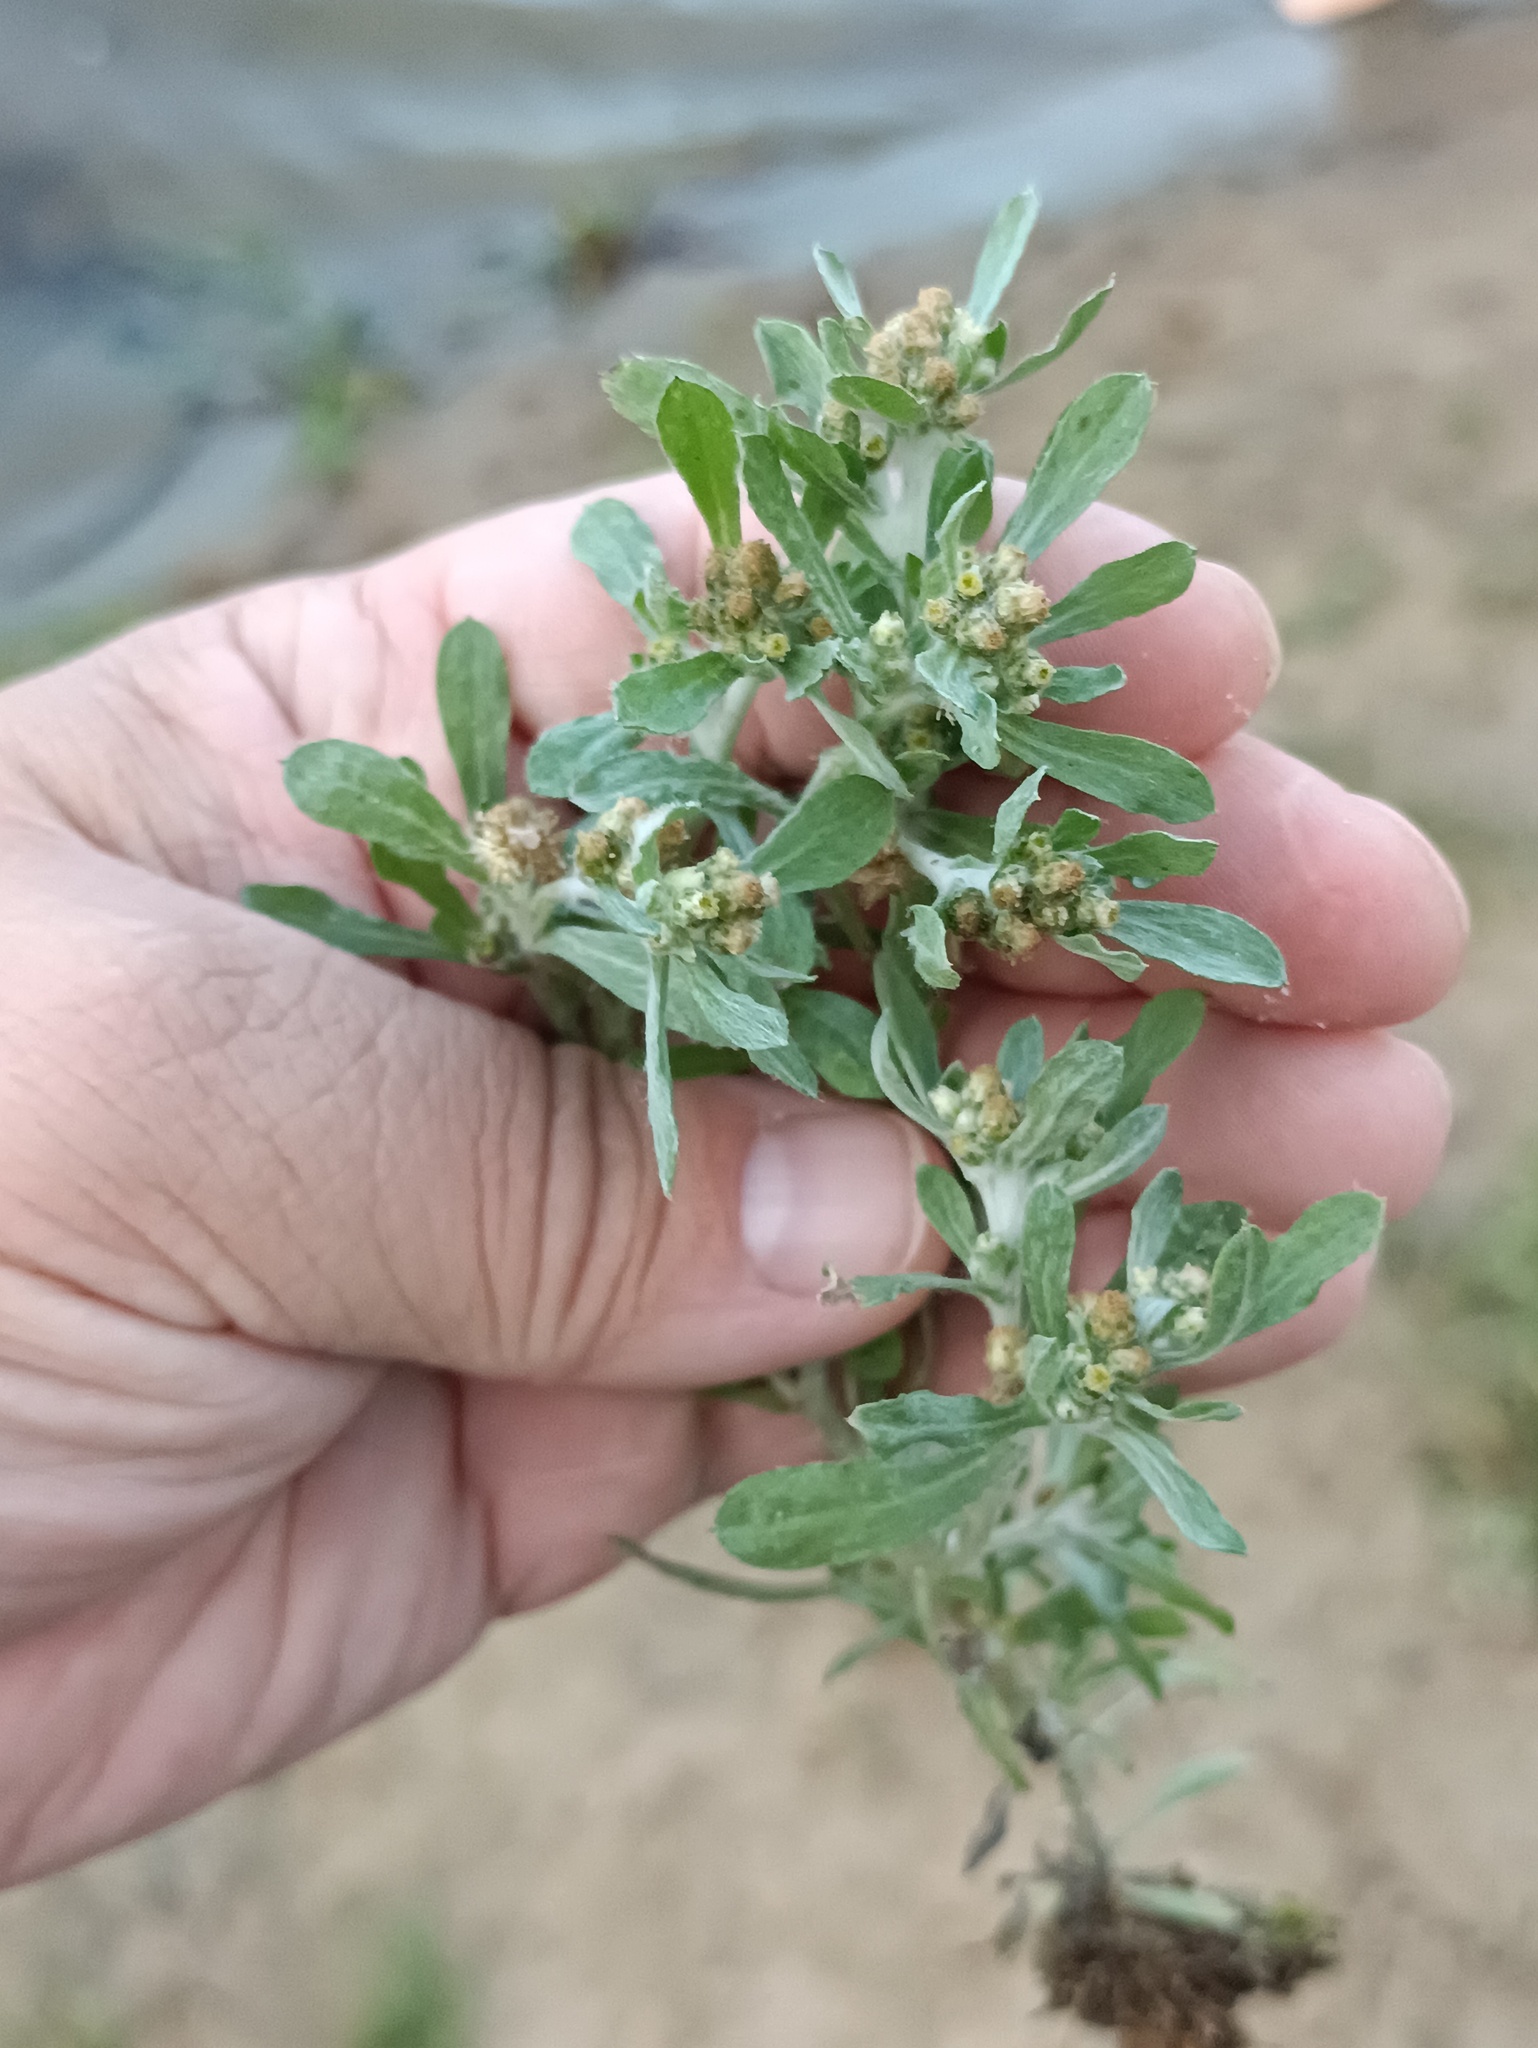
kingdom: Plantae
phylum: Tracheophyta
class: Magnoliopsida
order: Asterales
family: Asteraceae
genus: Gnaphalium
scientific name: Gnaphalium uliginosum
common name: Marsh cudweed
